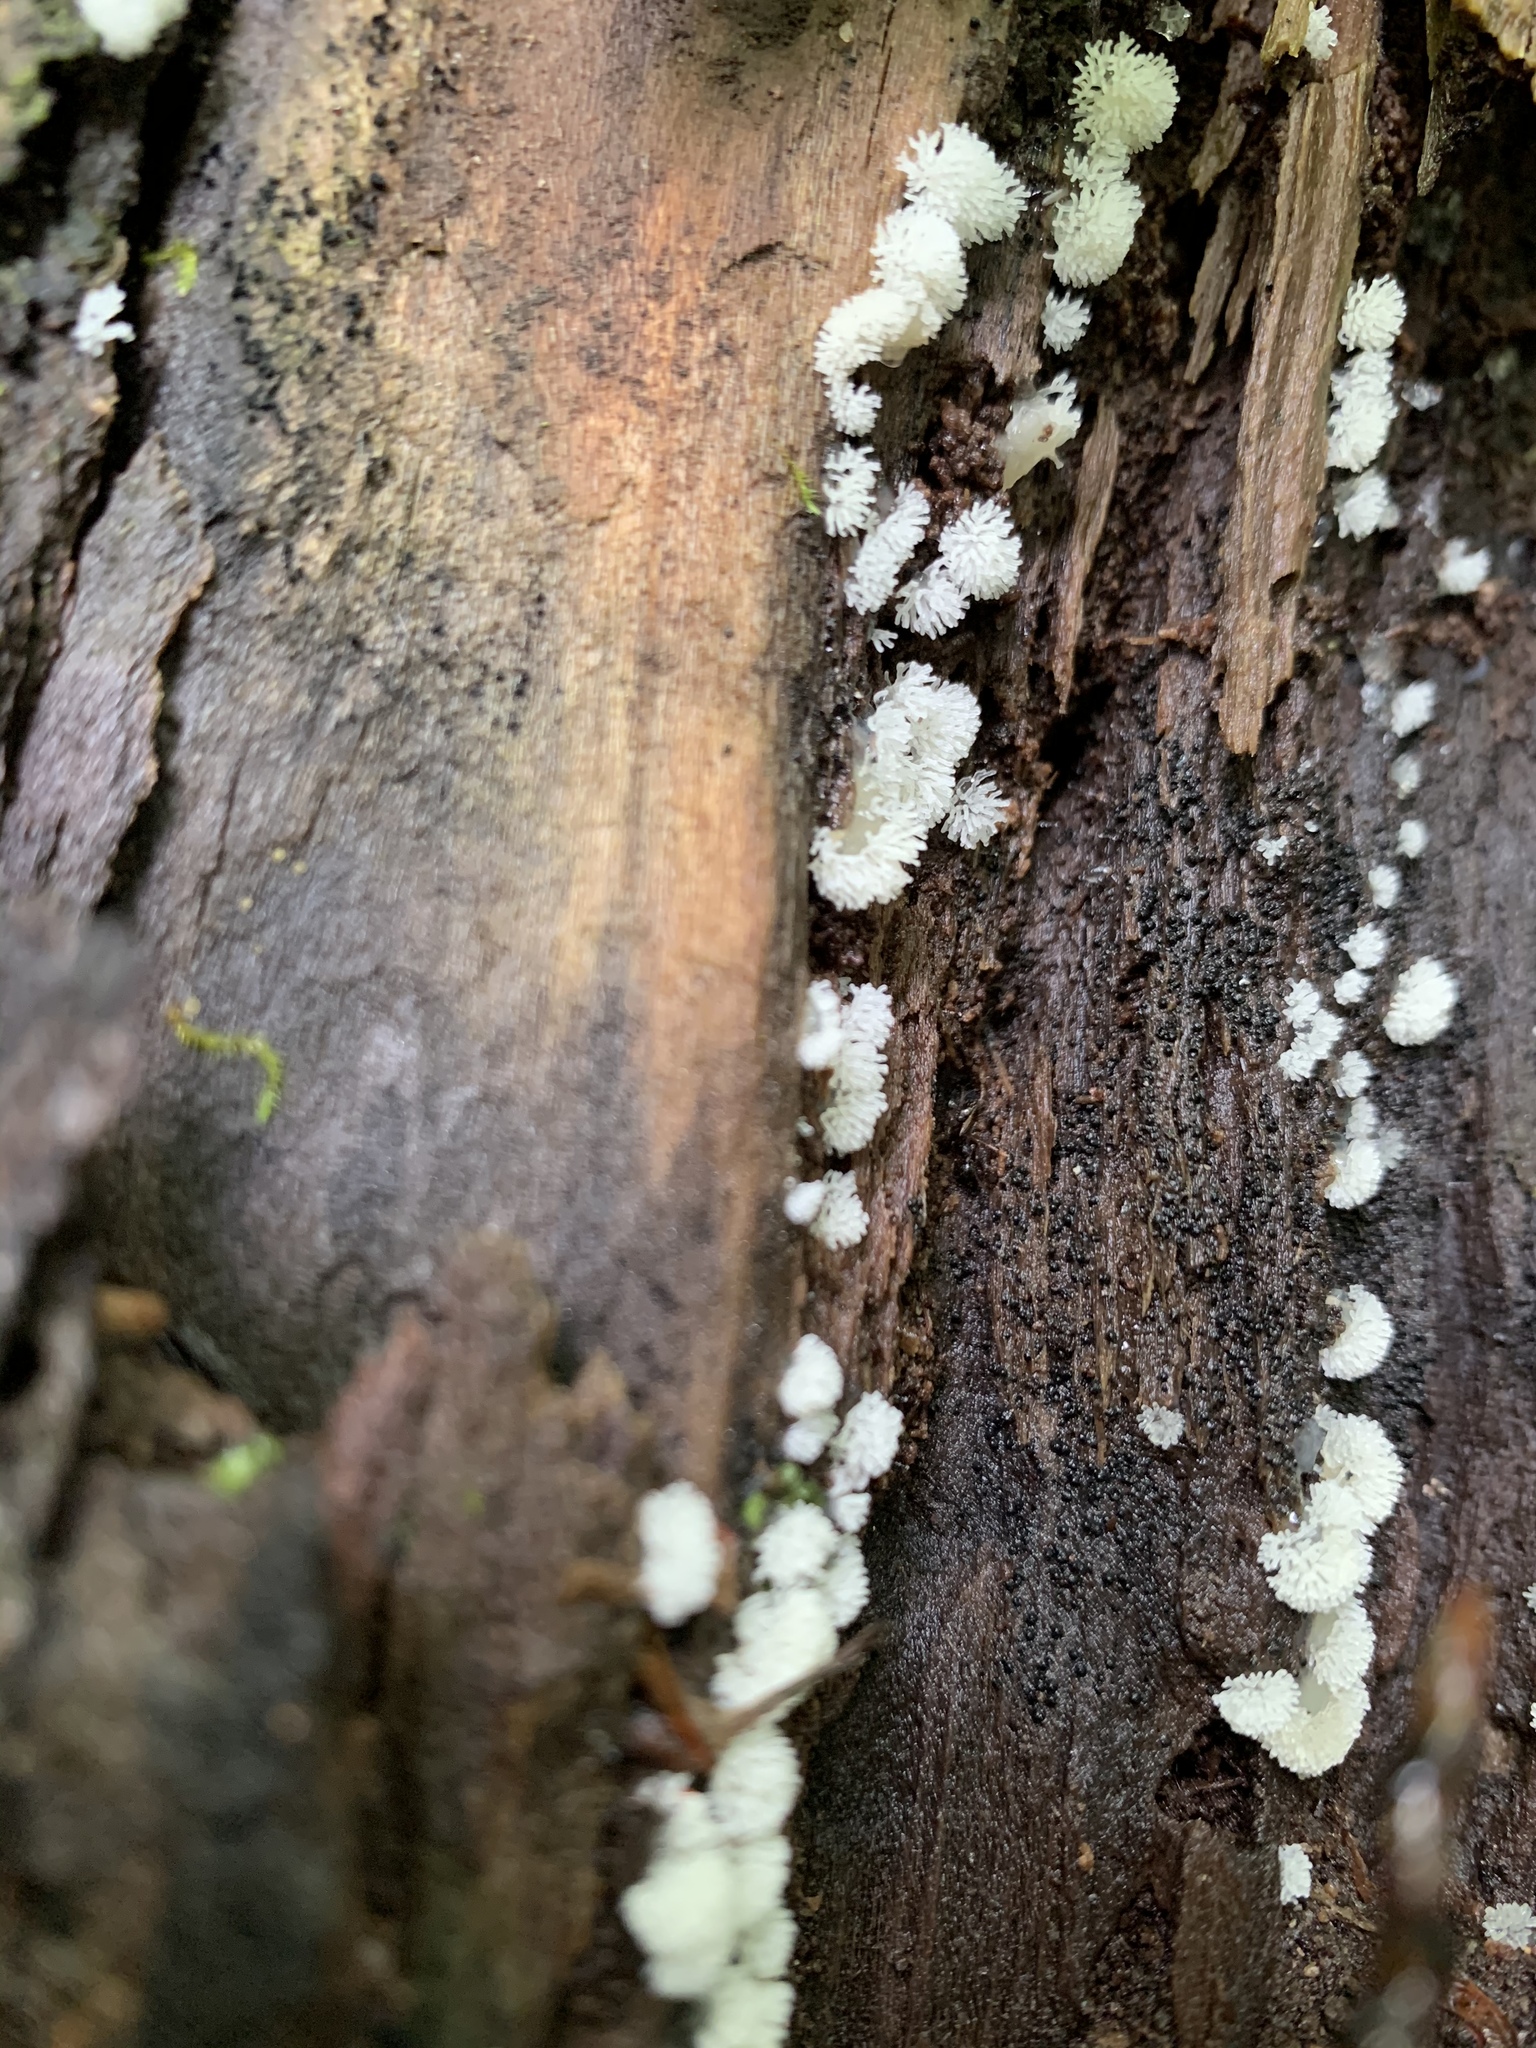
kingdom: Protozoa
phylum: Mycetozoa
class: Protosteliomycetes
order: Ceratiomyxales
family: Ceratiomyxaceae
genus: Ceratiomyxa
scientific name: Ceratiomyxa fruticulosa
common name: Honeycomb coral slime mold
